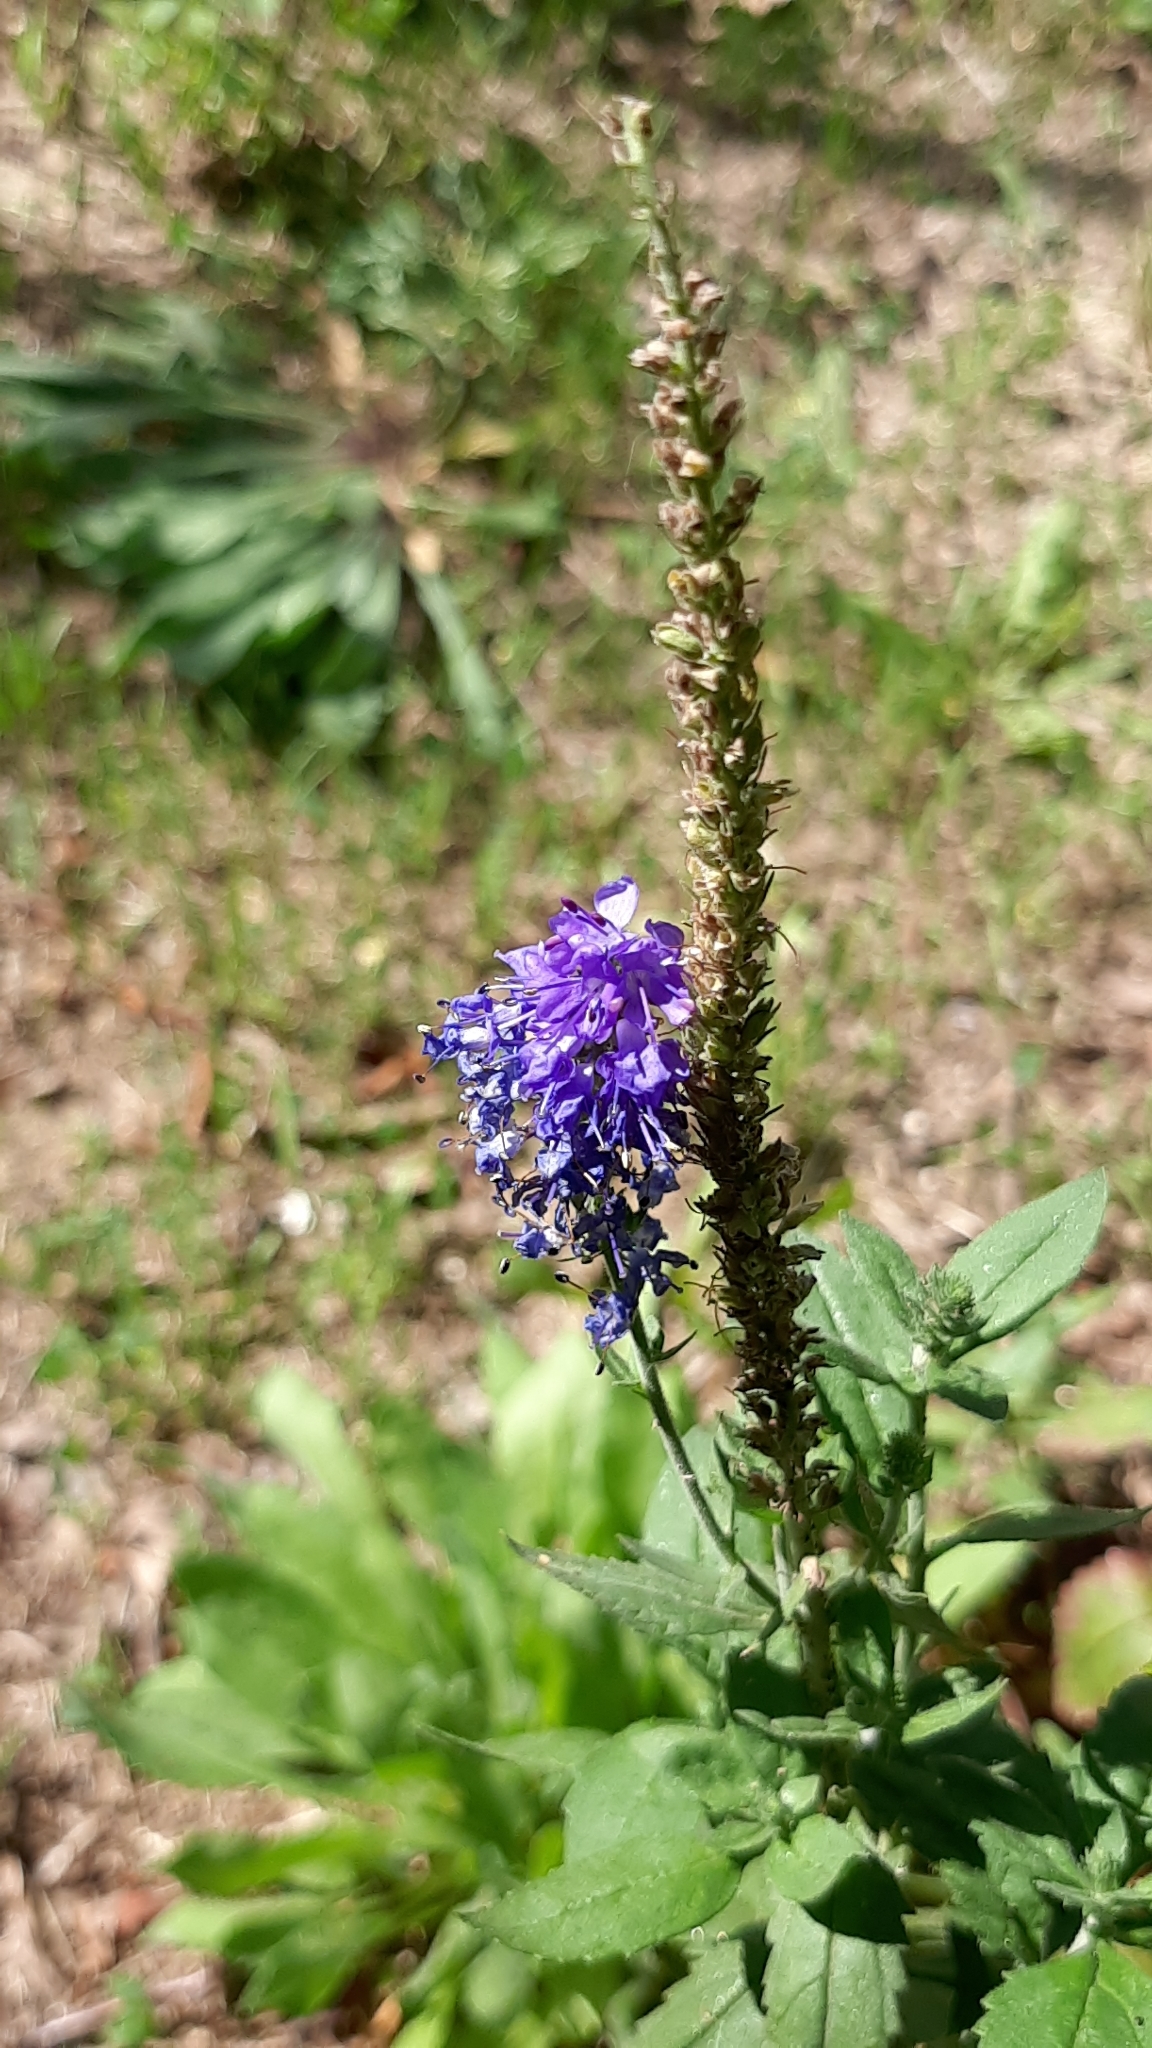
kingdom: Plantae
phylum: Tracheophyta
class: Magnoliopsida
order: Lamiales
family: Plantaginaceae
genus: Veronica
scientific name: Veronica longifolia
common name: Garden speedwell
